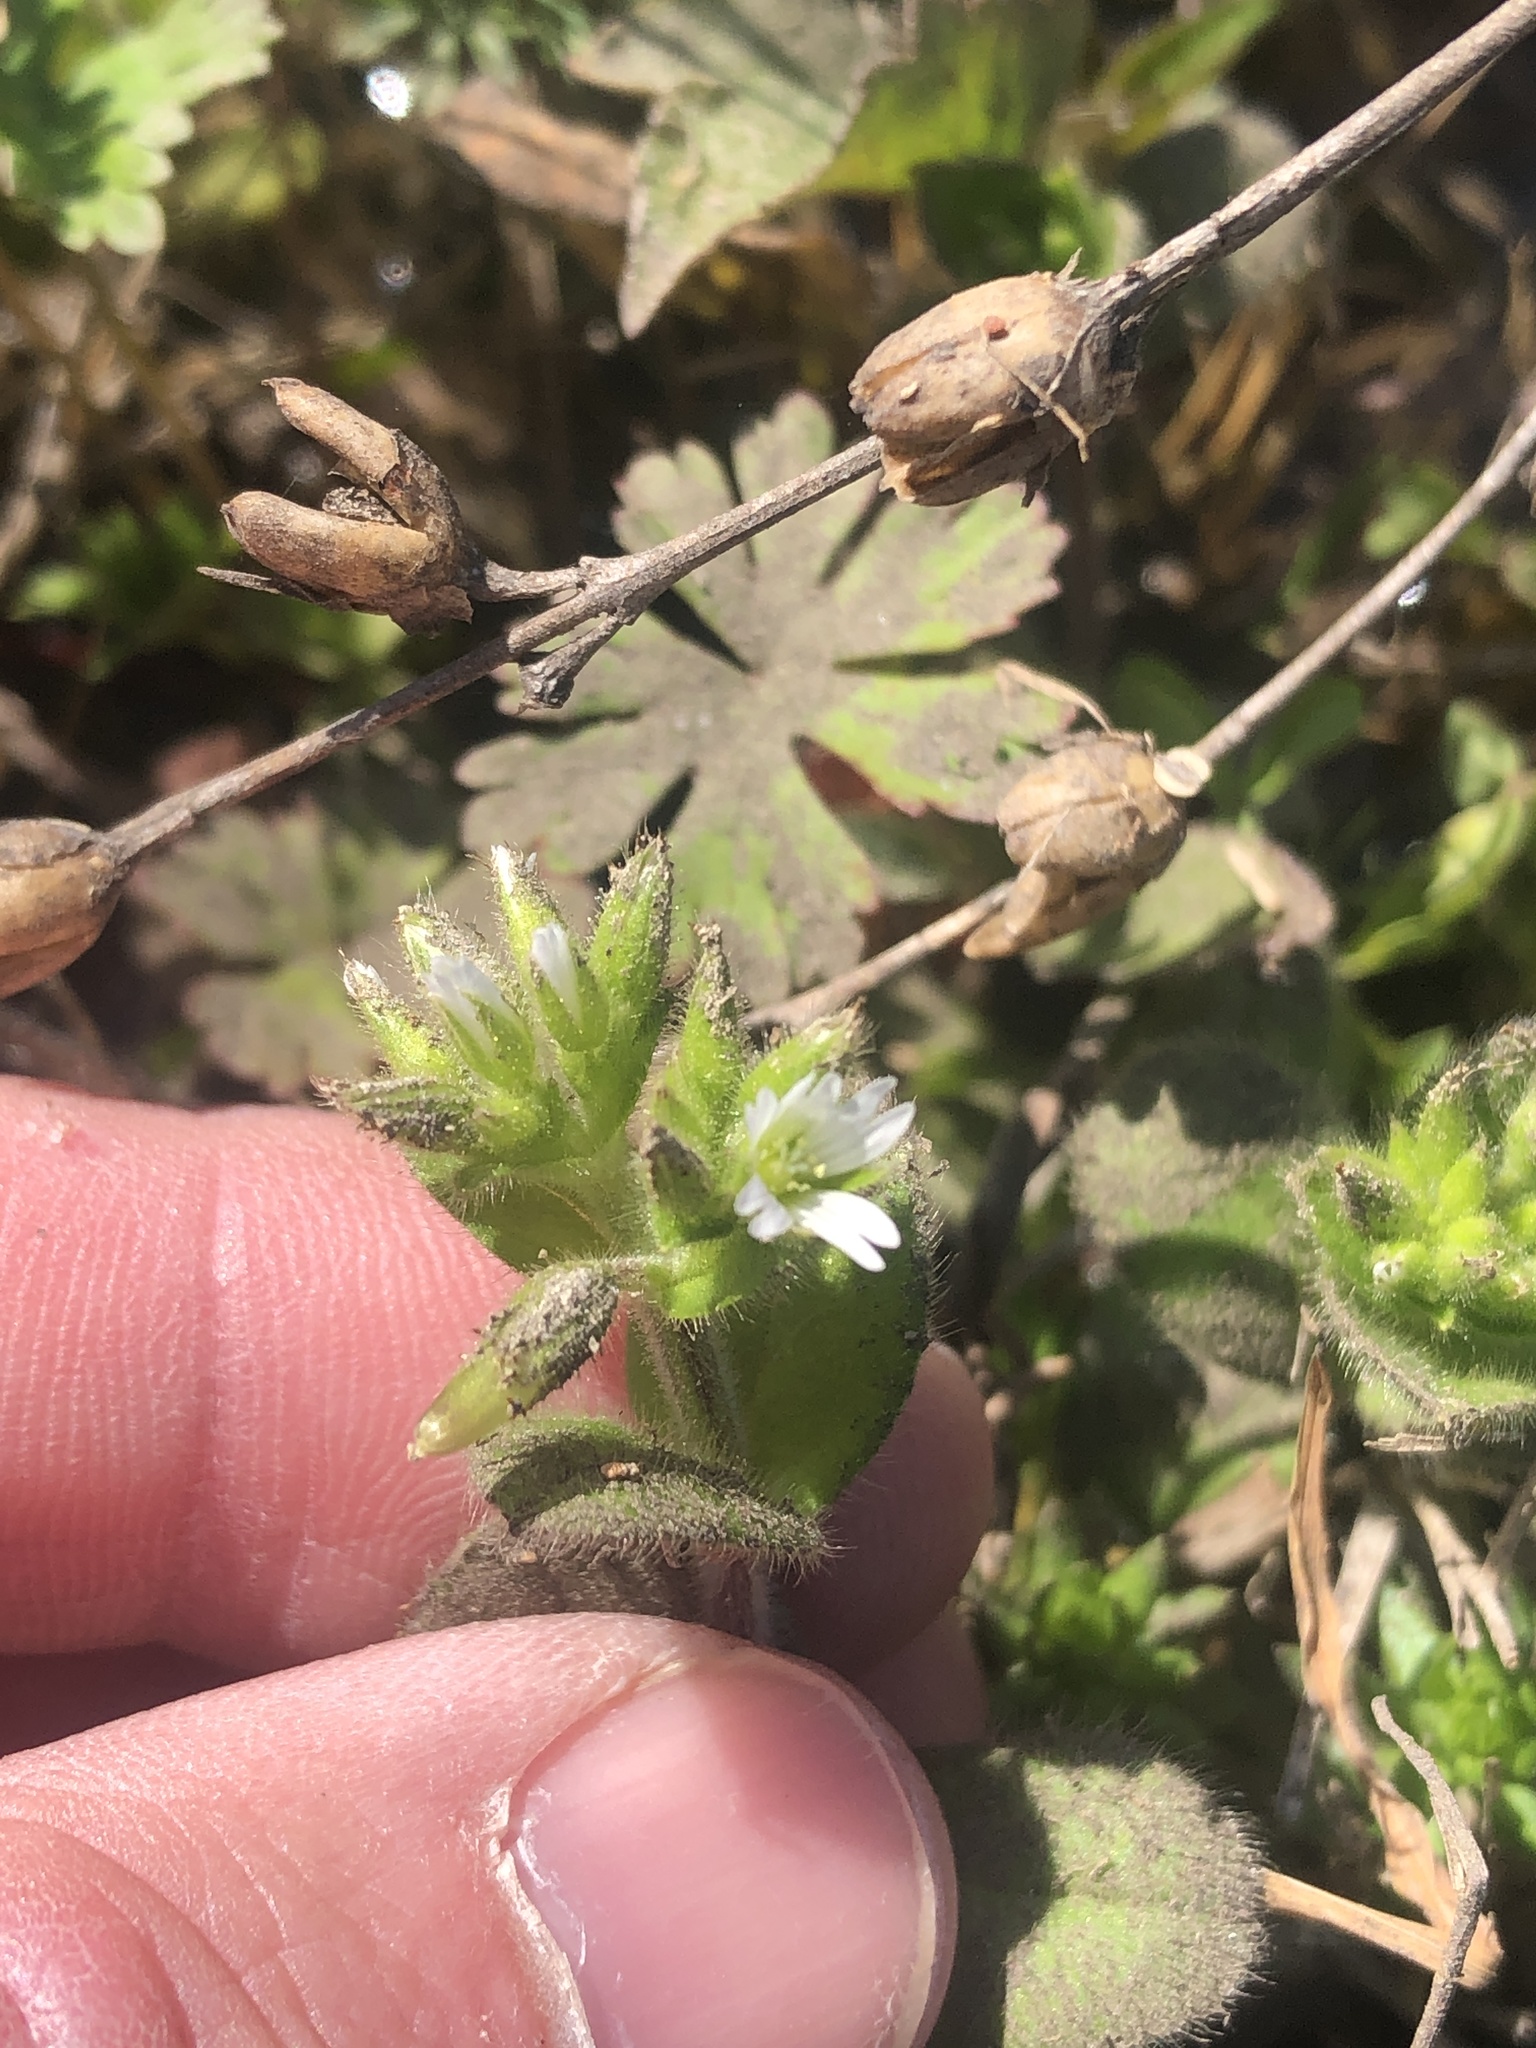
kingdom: Plantae
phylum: Tracheophyta
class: Magnoliopsida
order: Caryophyllales
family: Caryophyllaceae
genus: Cerastium
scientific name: Cerastium glomeratum
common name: Sticky chickweed
